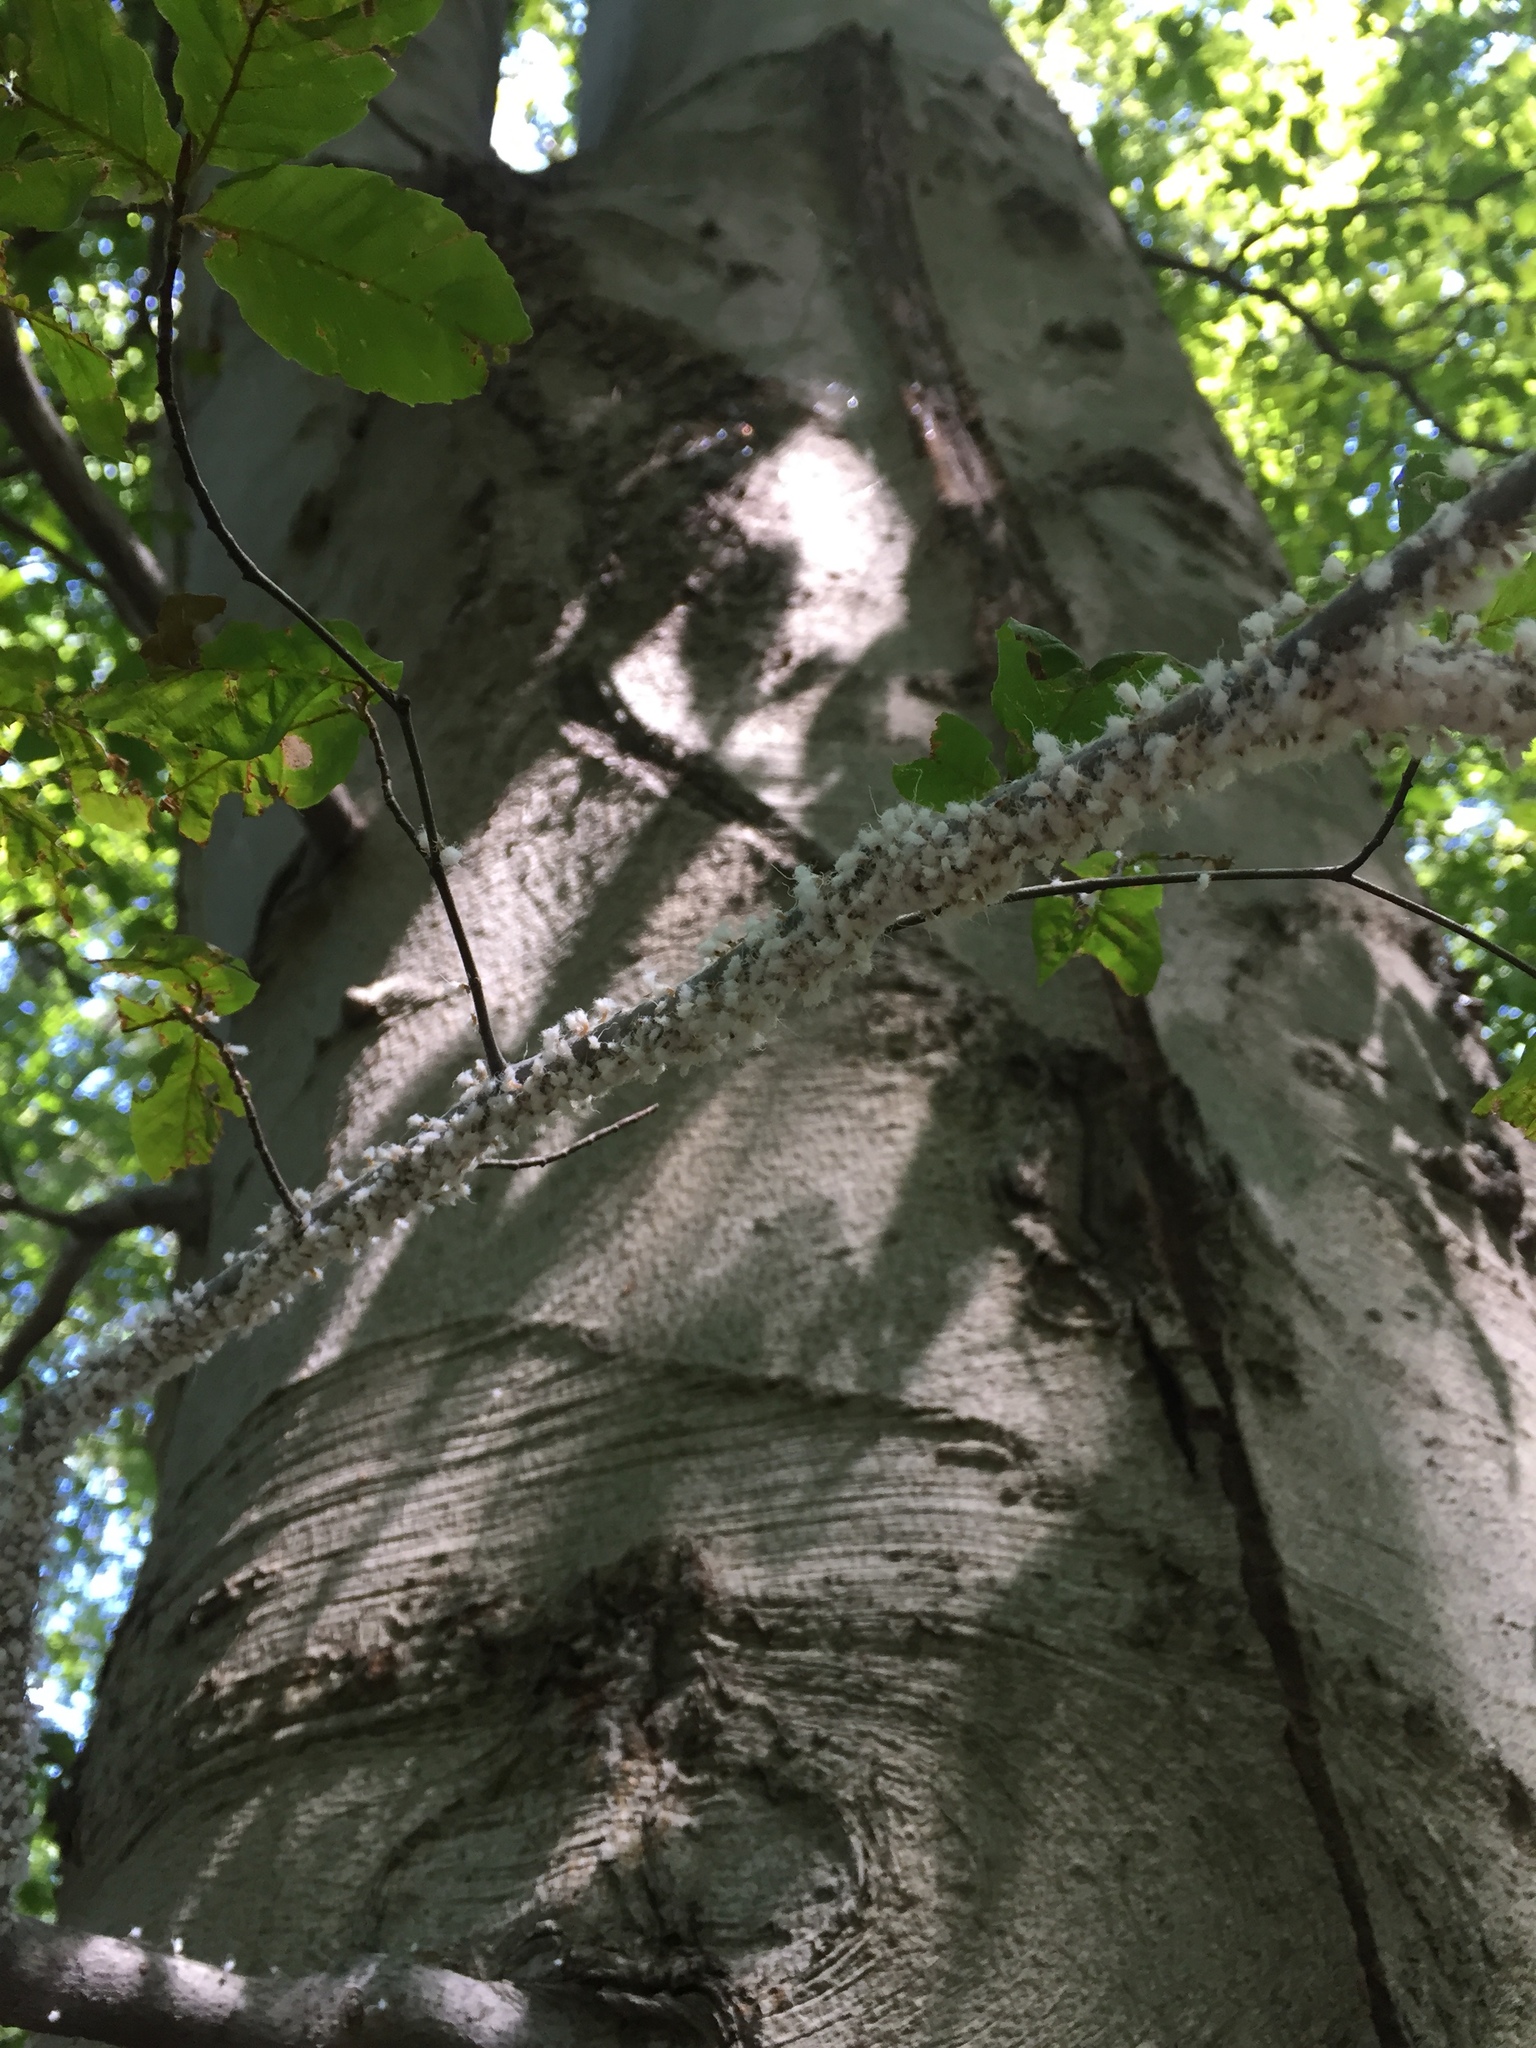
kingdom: Animalia
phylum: Arthropoda
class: Insecta
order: Hemiptera
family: Aphididae
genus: Grylloprociphilus
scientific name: Grylloprociphilus imbricator
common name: Beech blight aphid
